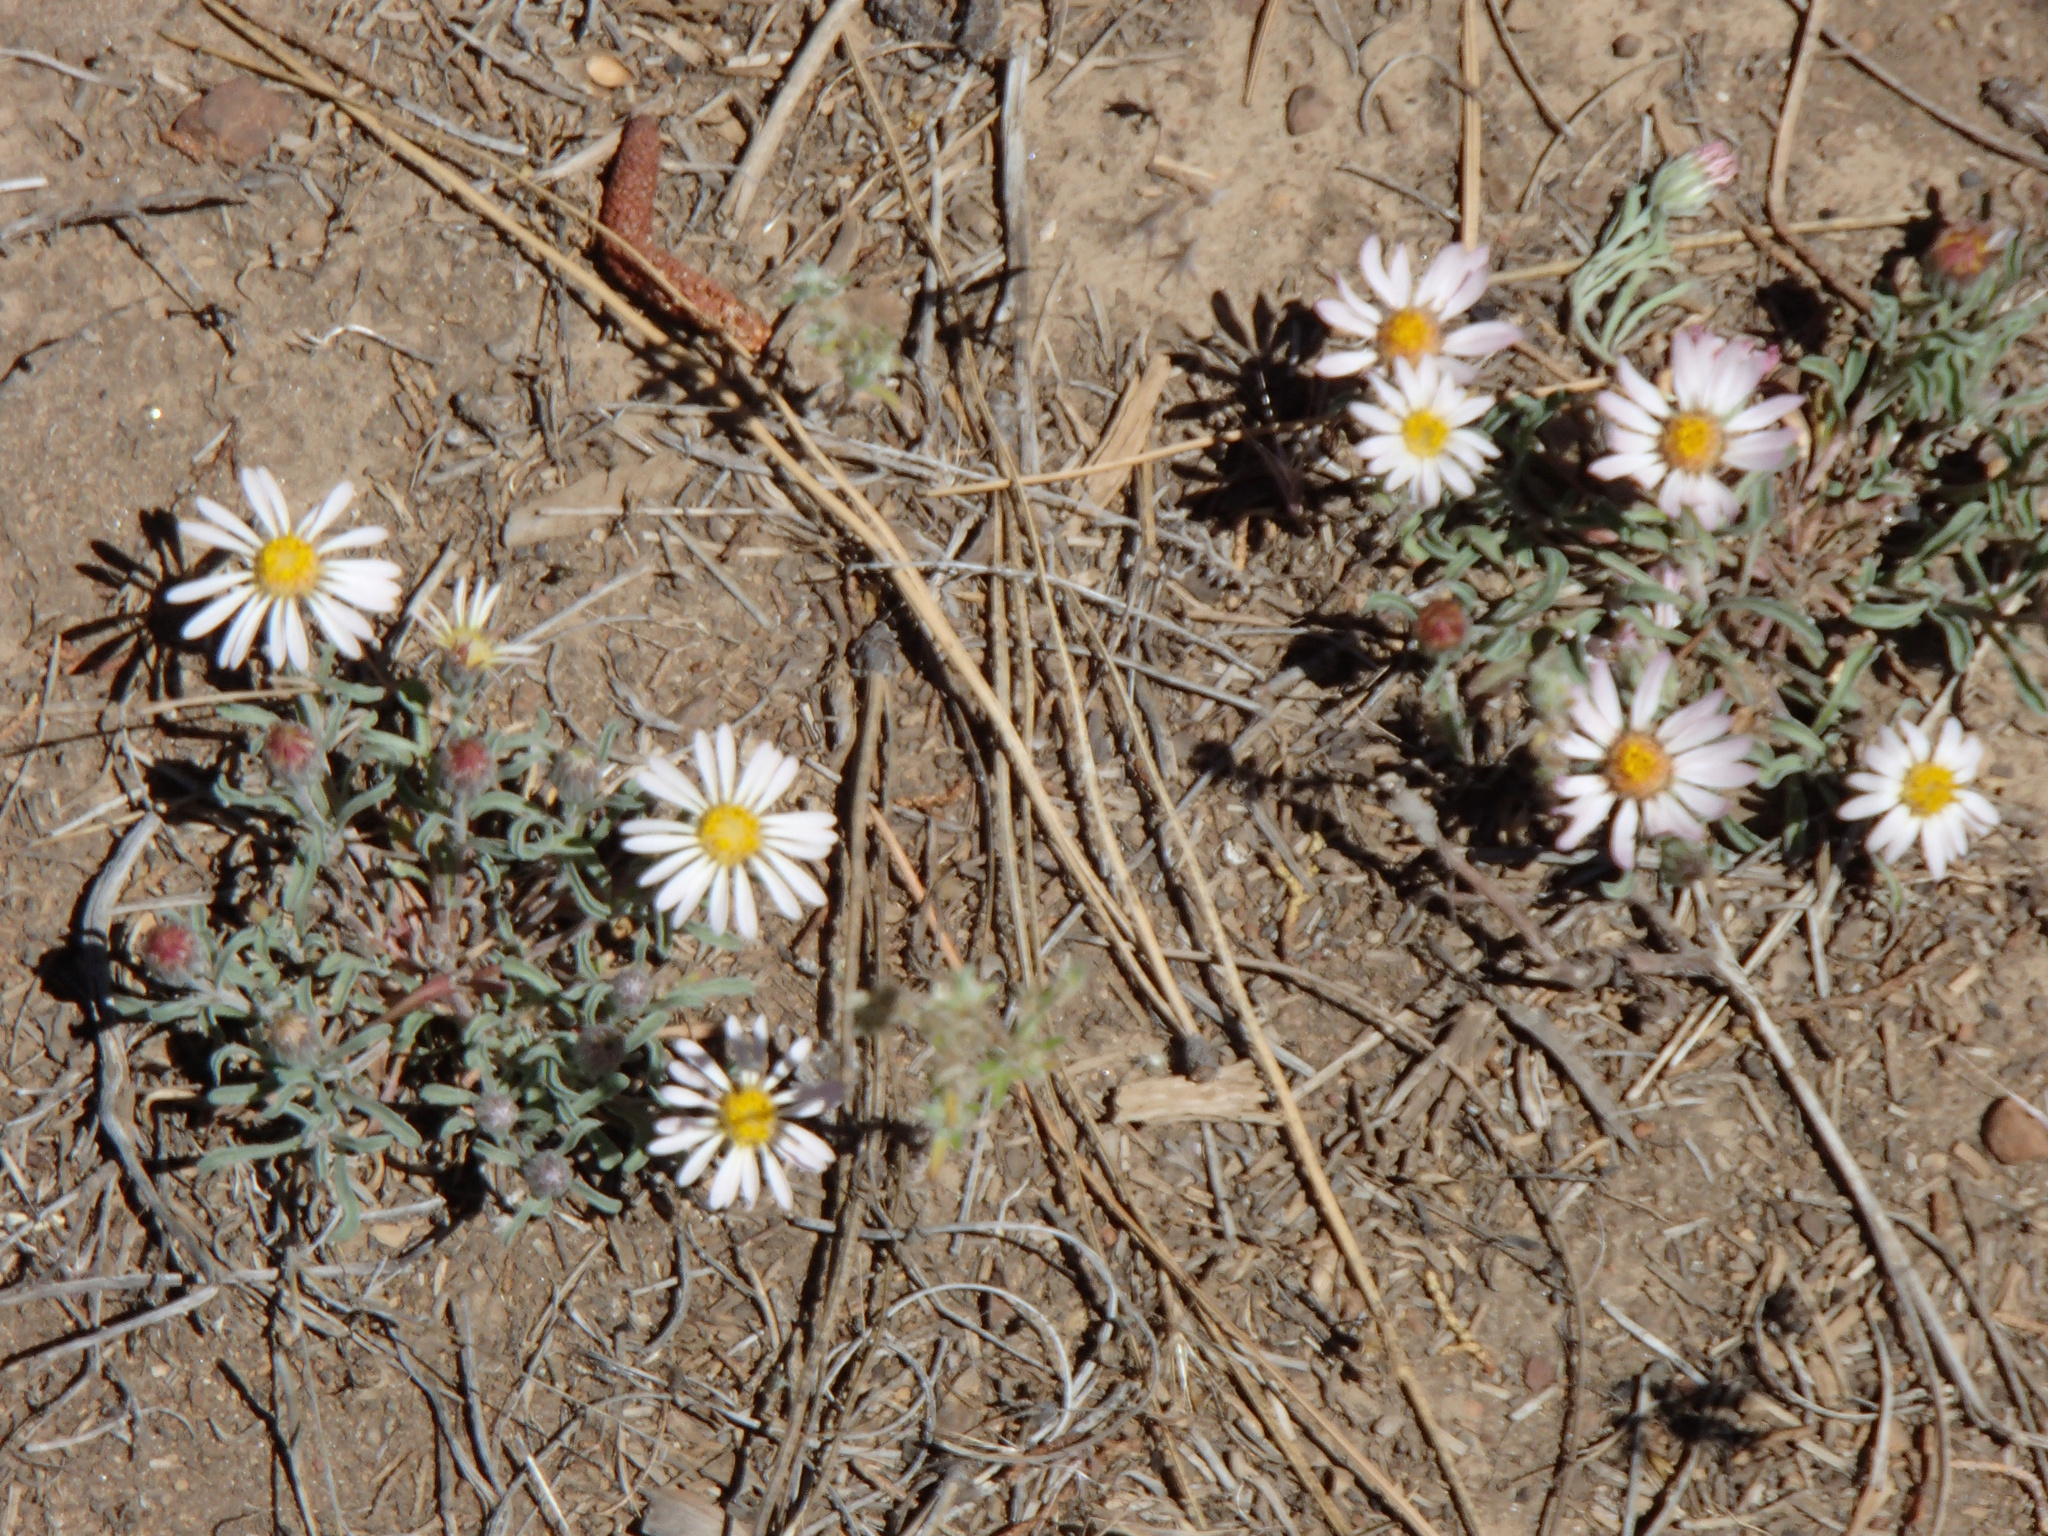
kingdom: Plantae
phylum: Tracheophyta
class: Magnoliopsida
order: Asterales
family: Asteraceae
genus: Townsendia
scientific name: Townsendia florifera
